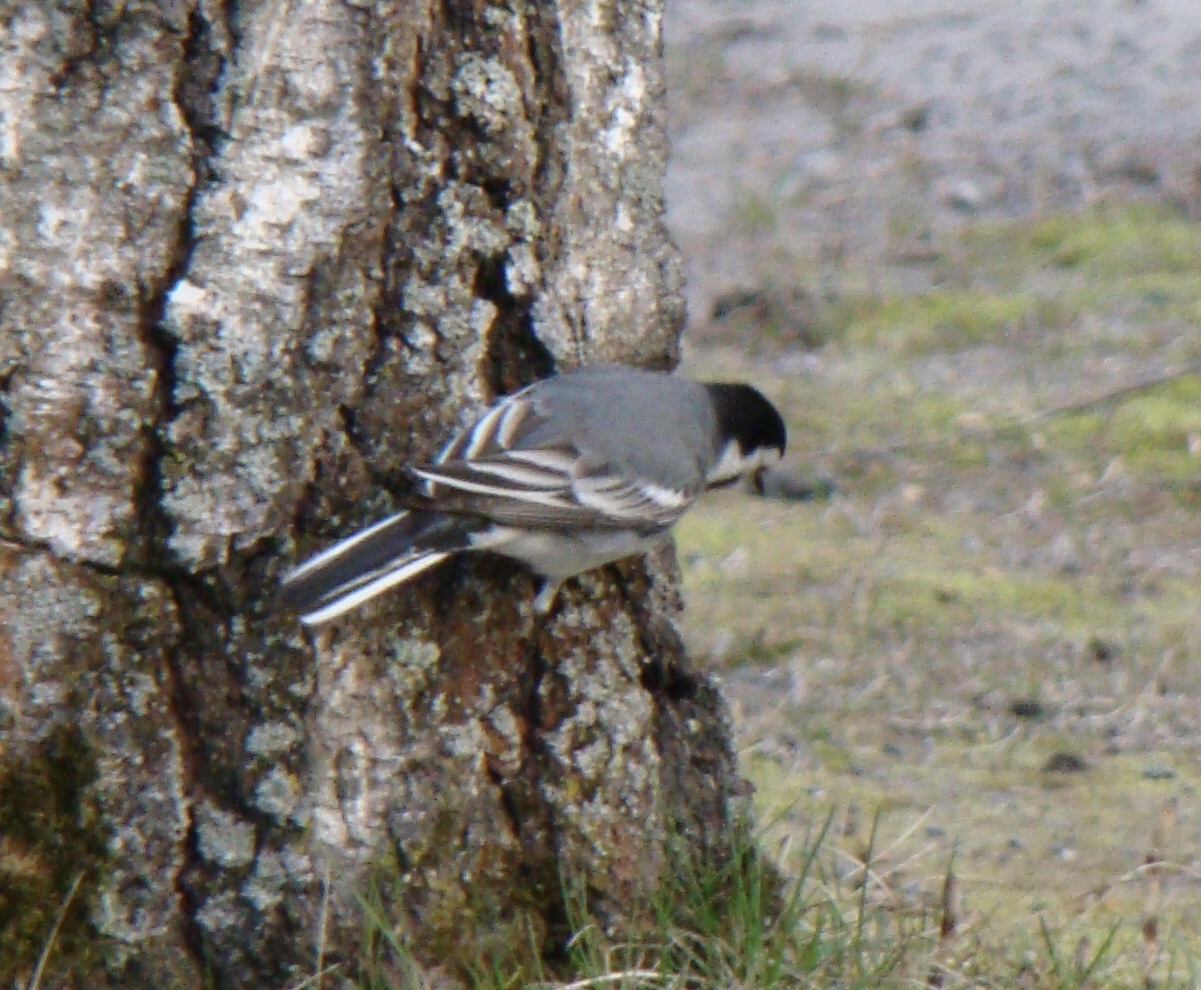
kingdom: Animalia
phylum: Chordata
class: Aves
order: Passeriformes
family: Motacillidae
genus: Motacilla
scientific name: Motacilla alba
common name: White wagtail
